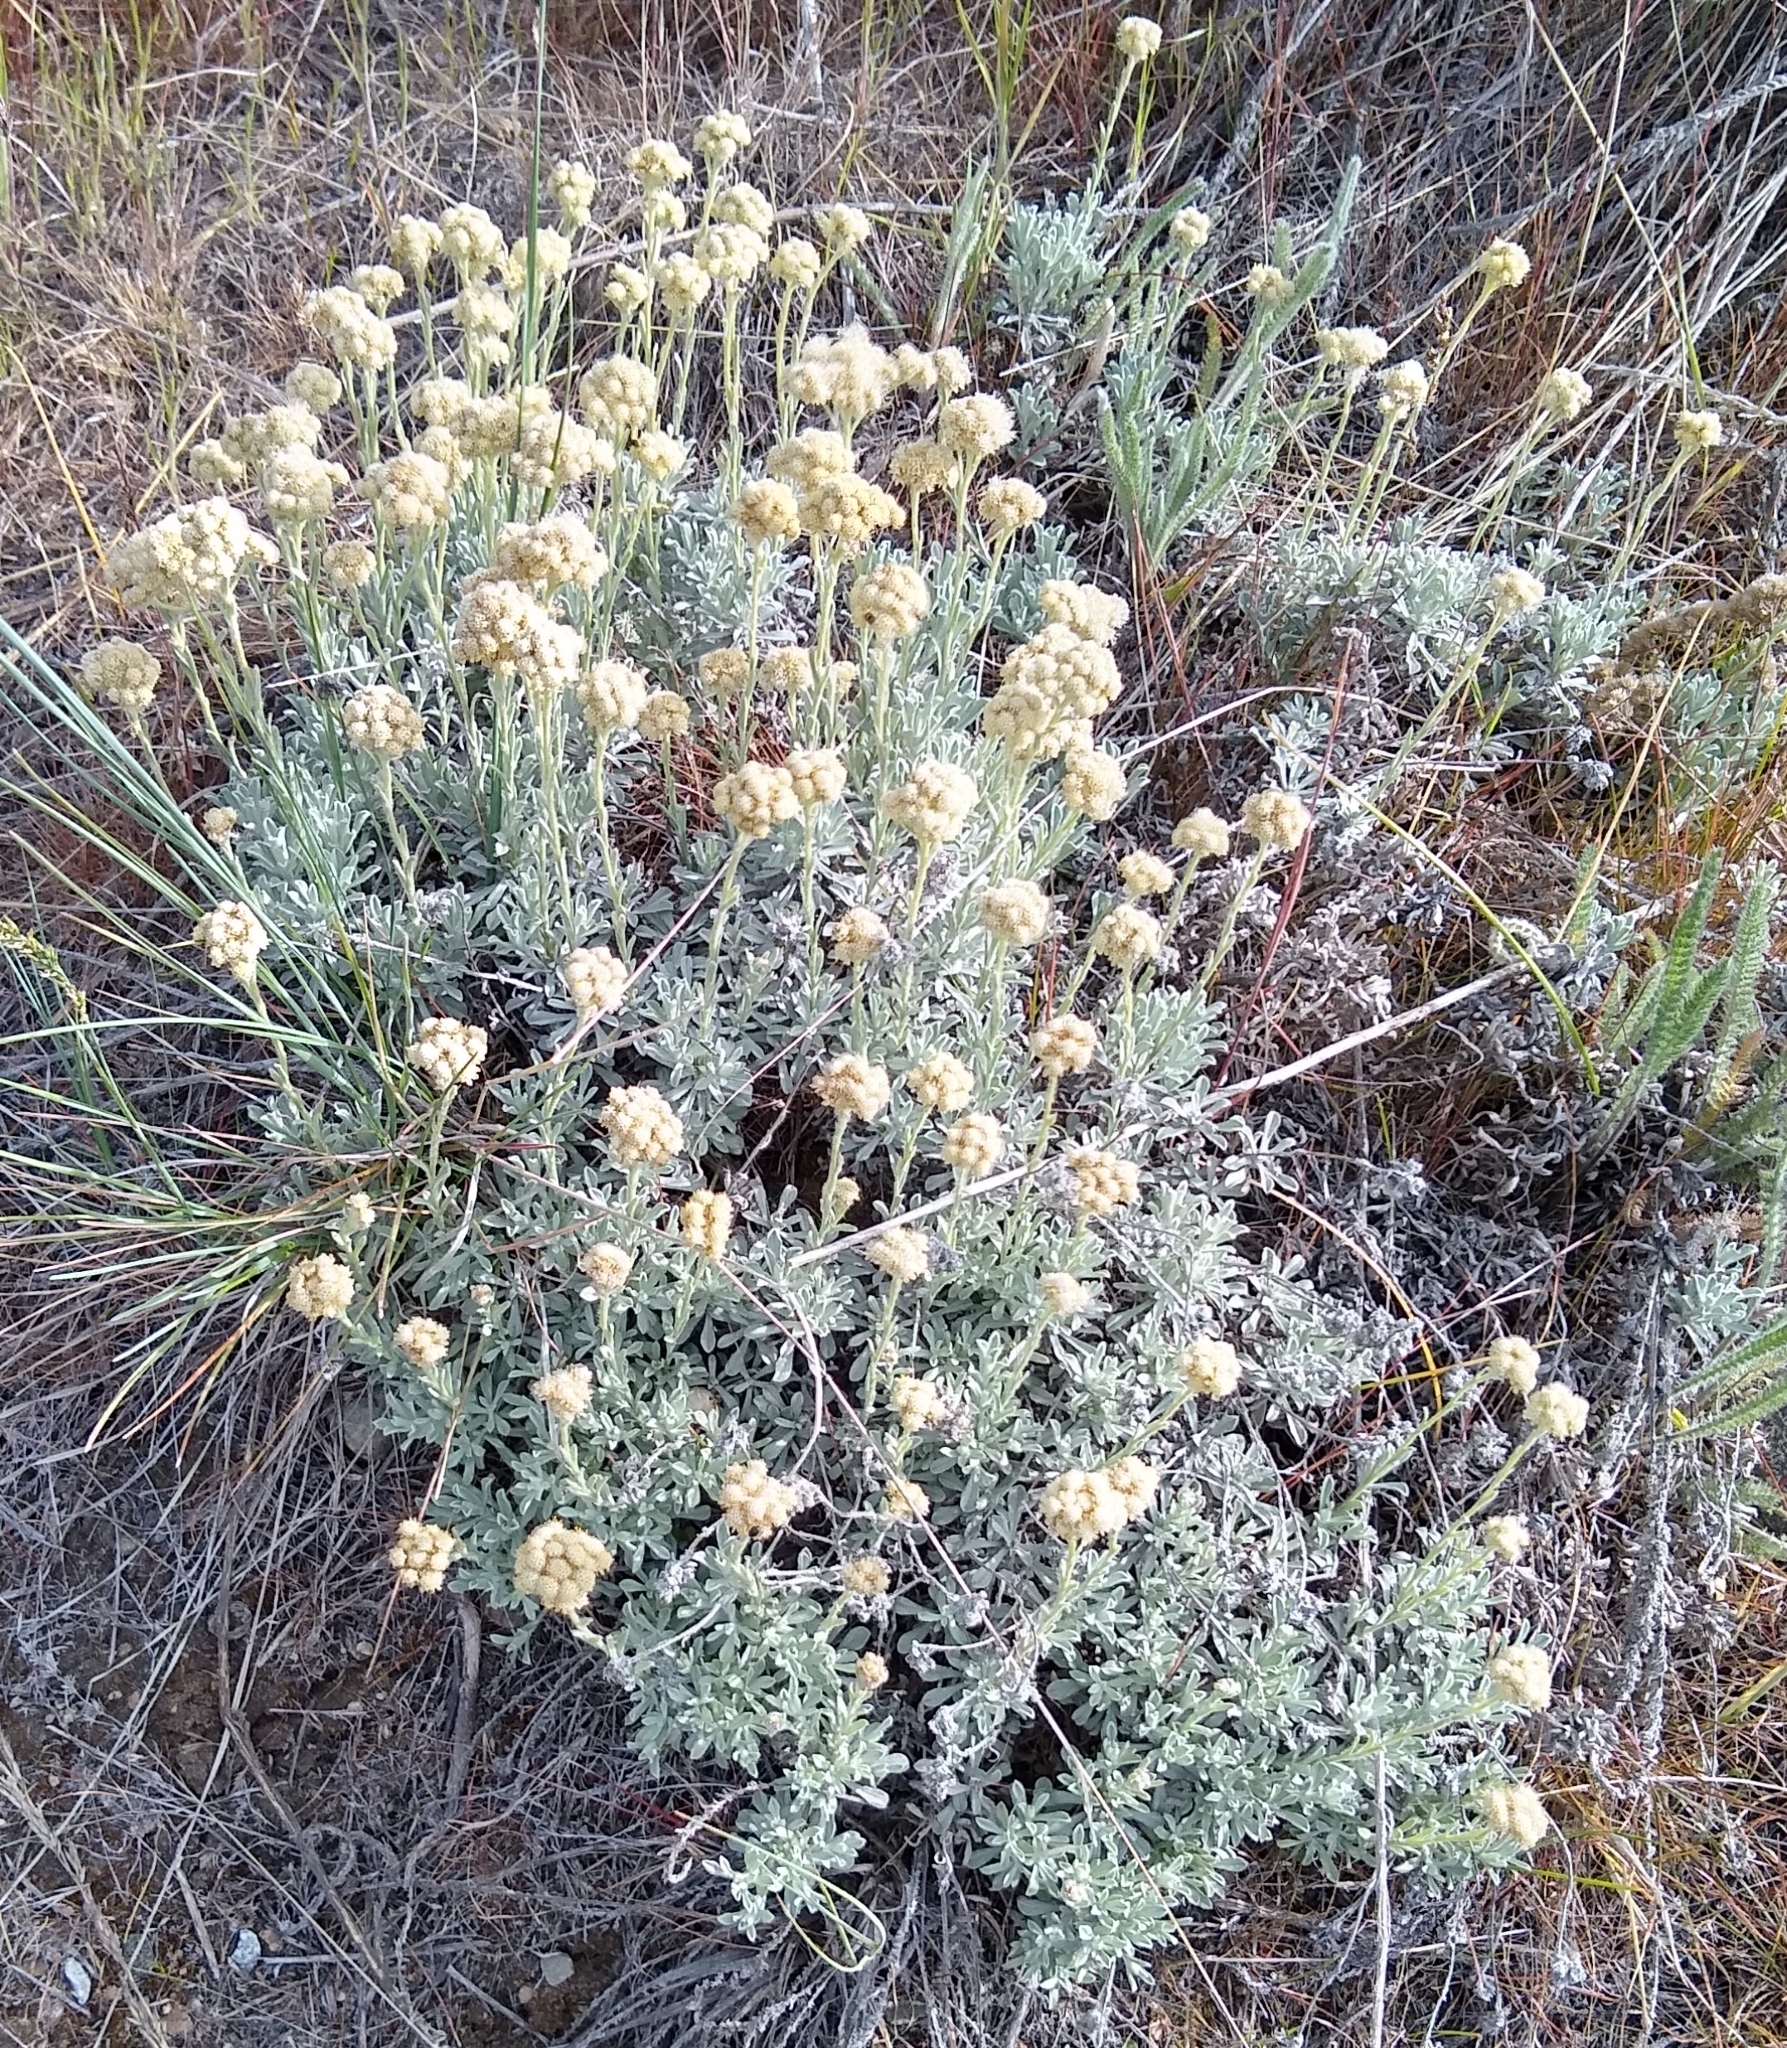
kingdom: Plantae
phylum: Tracheophyta
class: Magnoliopsida
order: Asterales
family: Asteraceae
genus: Antennaria
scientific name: Antennaria umbrinella
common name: Brown pussytoes
